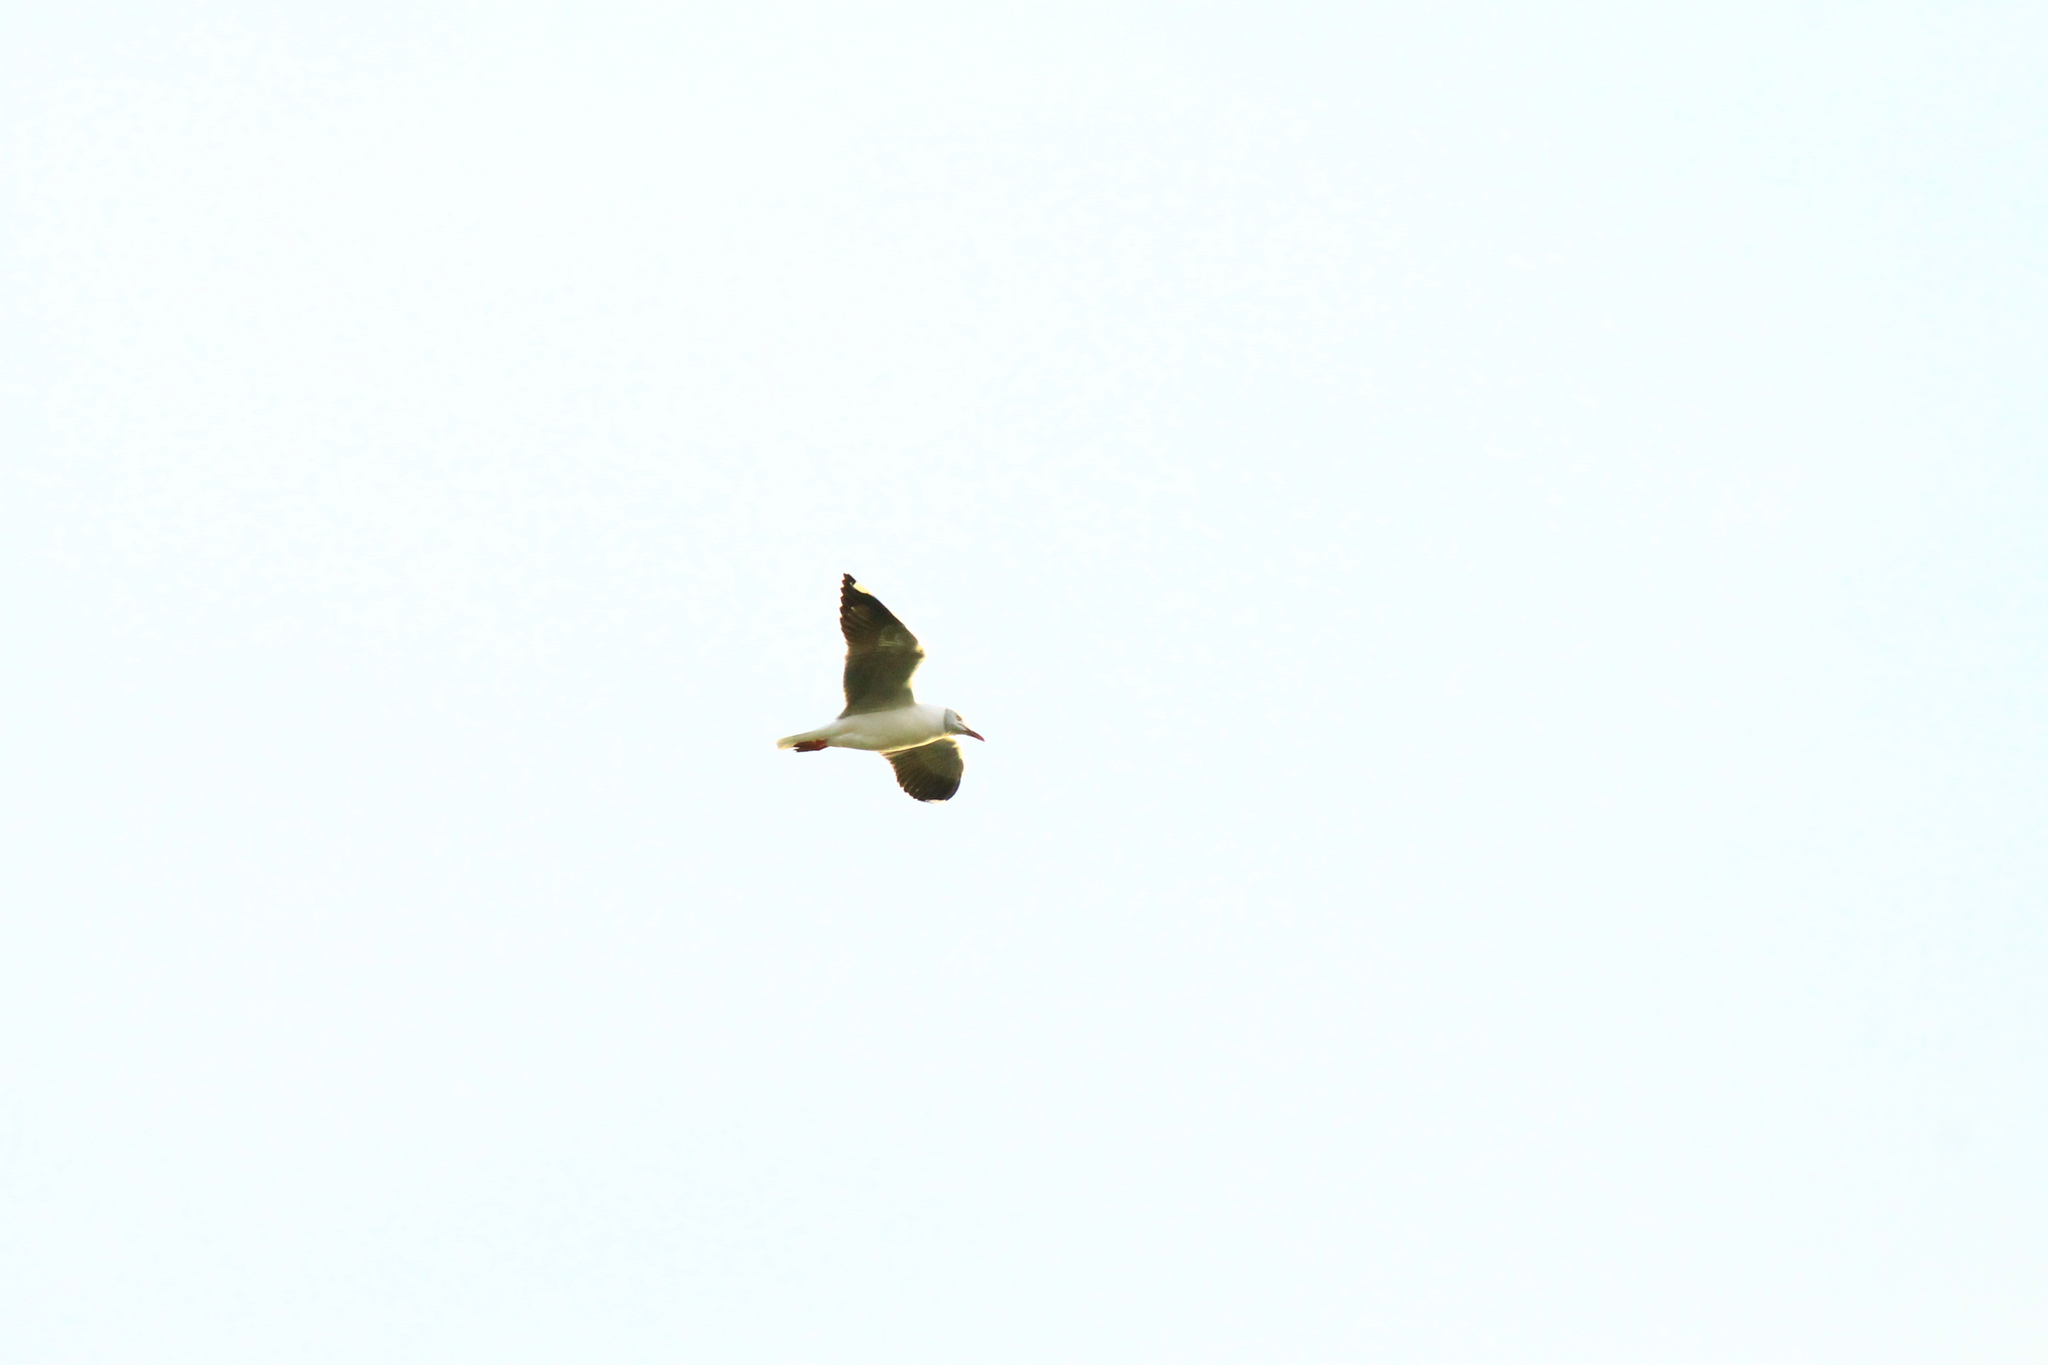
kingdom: Animalia
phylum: Chordata
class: Aves
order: Charadriiformes
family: Laridae
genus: Chroicocephalus
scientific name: Chroicocephalus cirrocephalus
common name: Grey-headed gull
